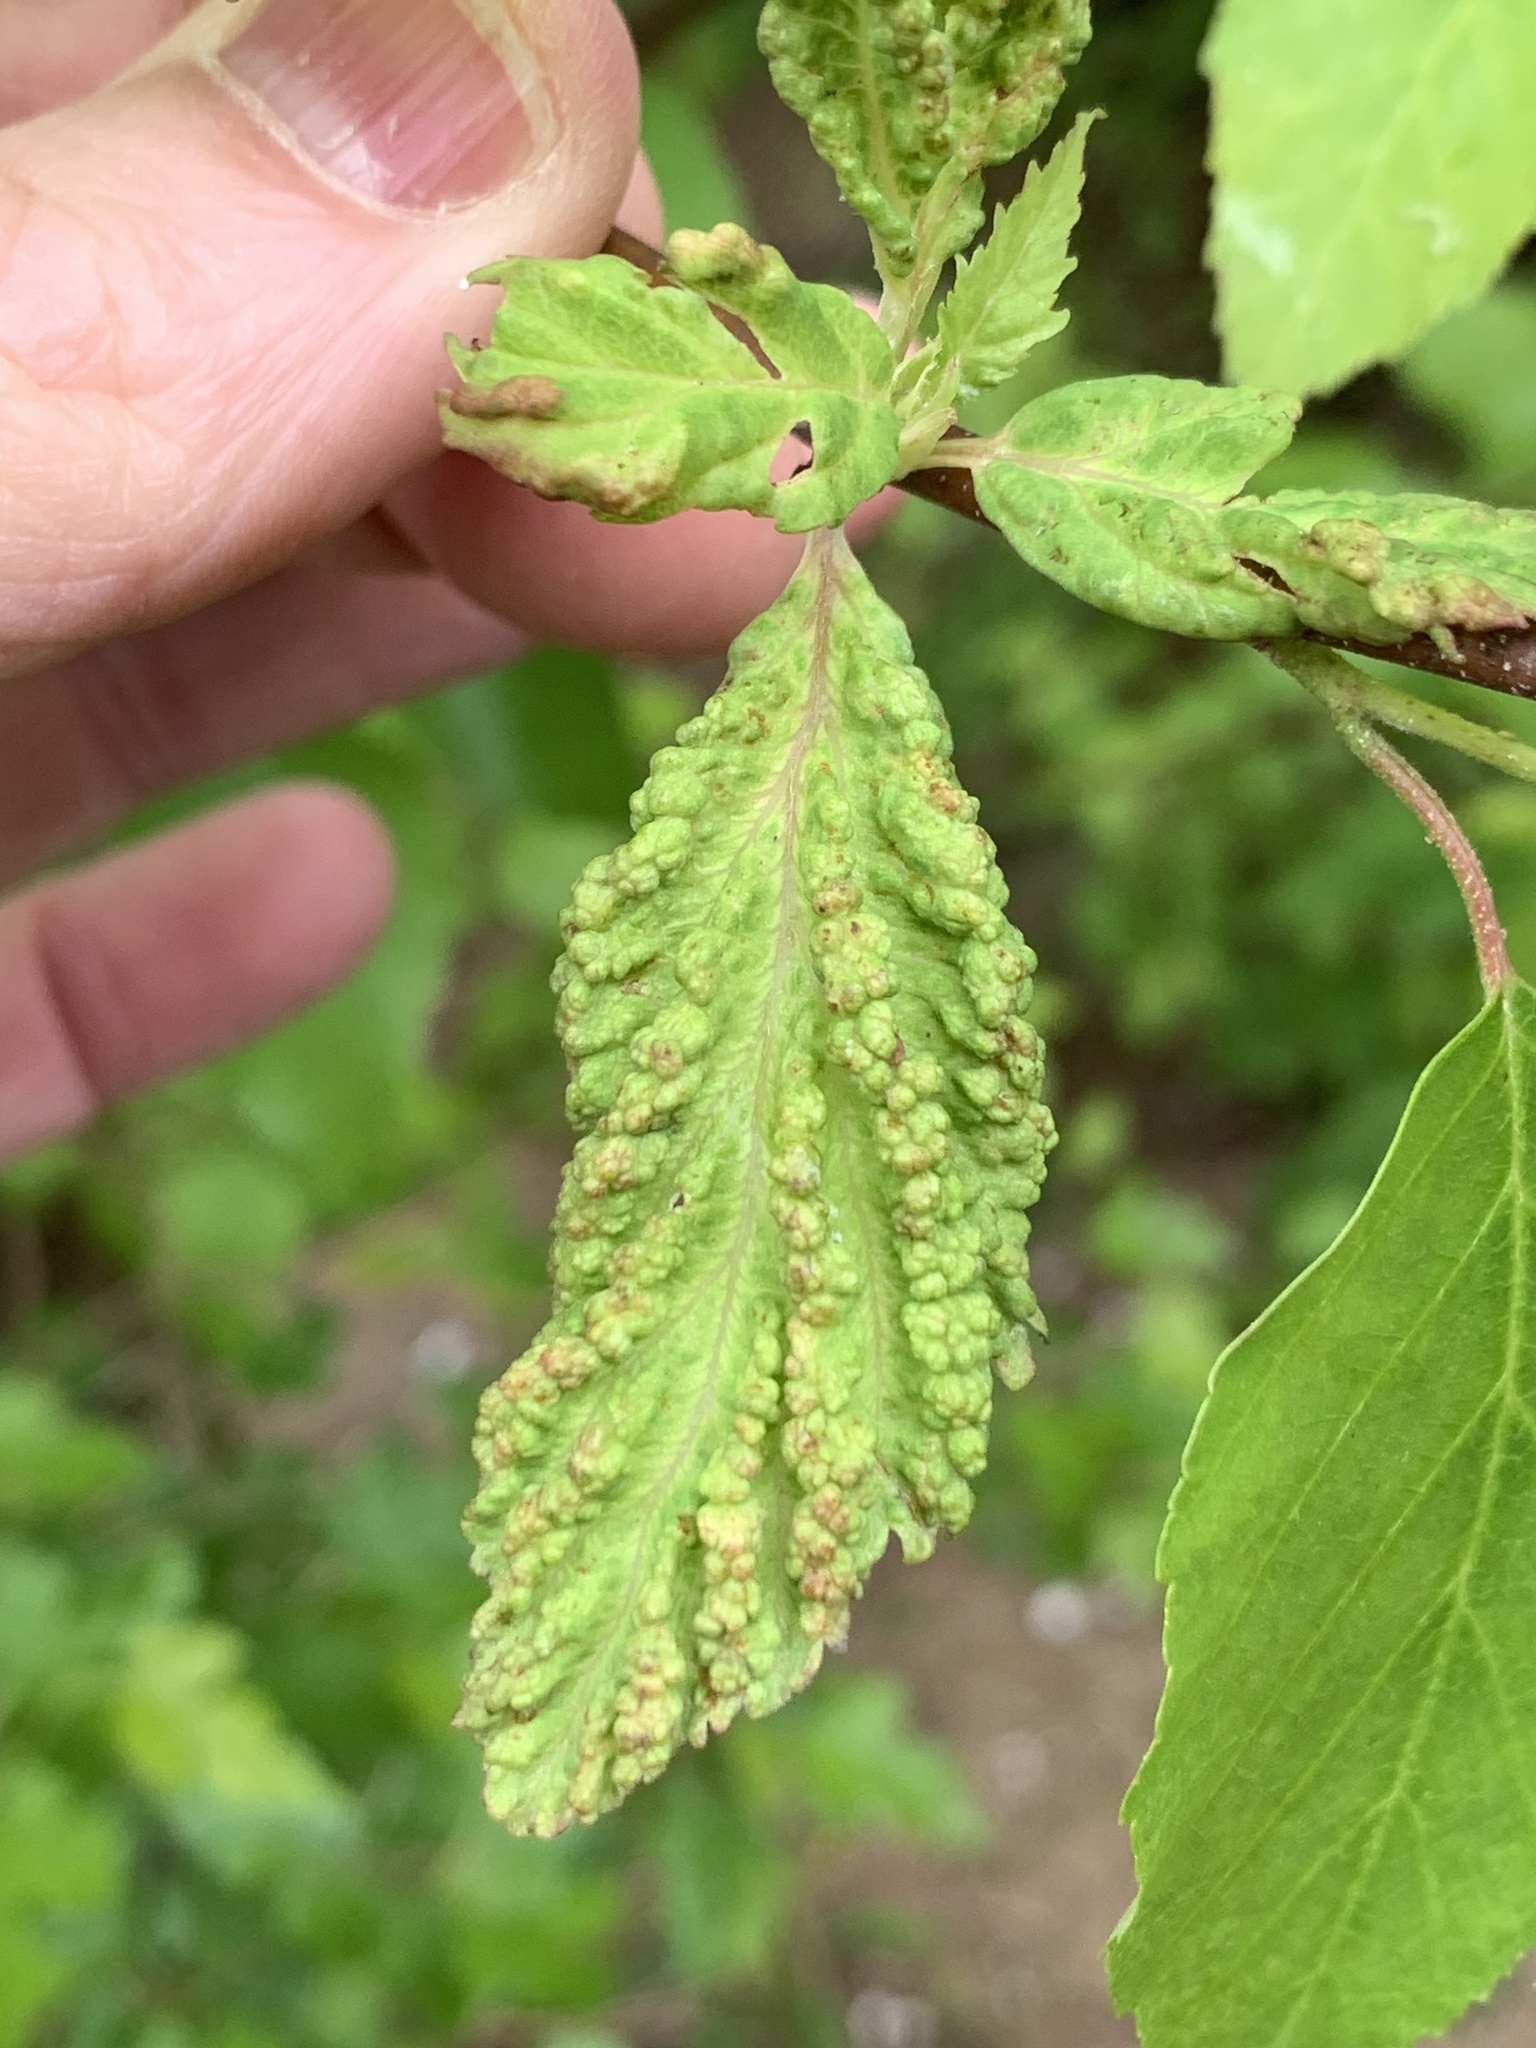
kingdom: Animalia
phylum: Arthropoda
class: Insecta
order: Hemiptera
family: Aphididae
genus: Hamamelistes
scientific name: Hamamelistes spinosus
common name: Witch hazel gall aphid
